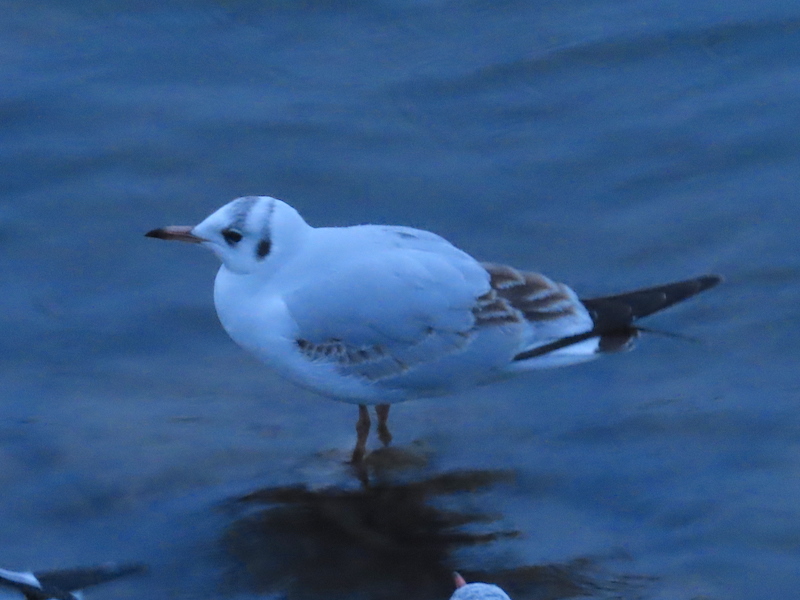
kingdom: Animalia
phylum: Chordata
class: Aves
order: Charadriiformes
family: Laridae
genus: Chroicocephalus
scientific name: Chroicocephalus ridibundus
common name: Black-headed gull
